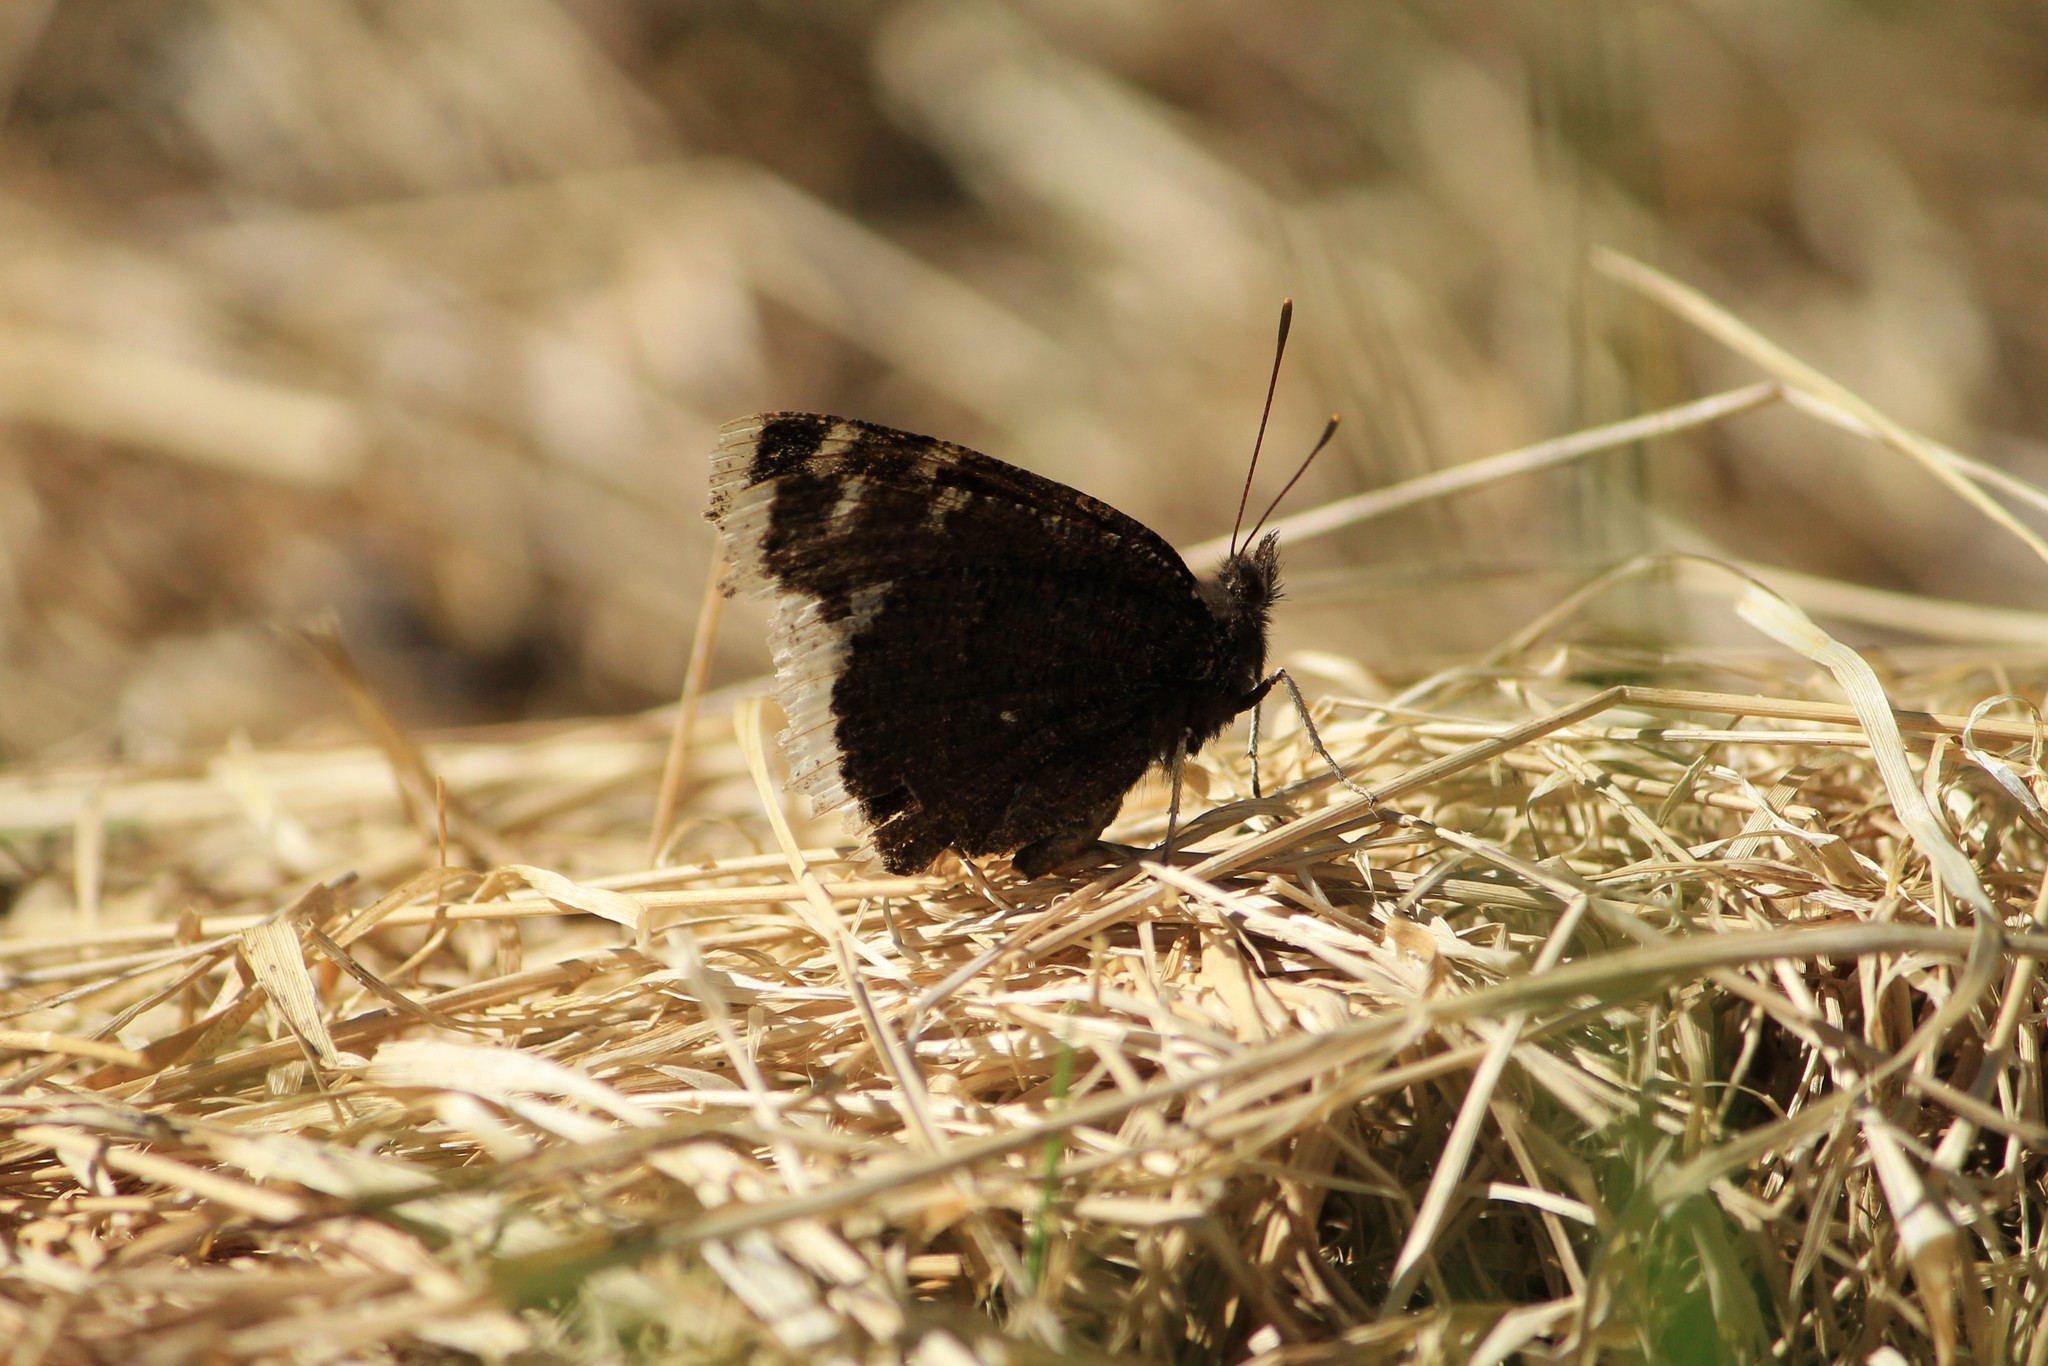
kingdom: Animalia
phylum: Arthropoda
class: Insecta
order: Lepidoptera
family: Nymphalidae
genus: Nymphalis
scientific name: Nymphalis antiopa
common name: Camberwell beauty
